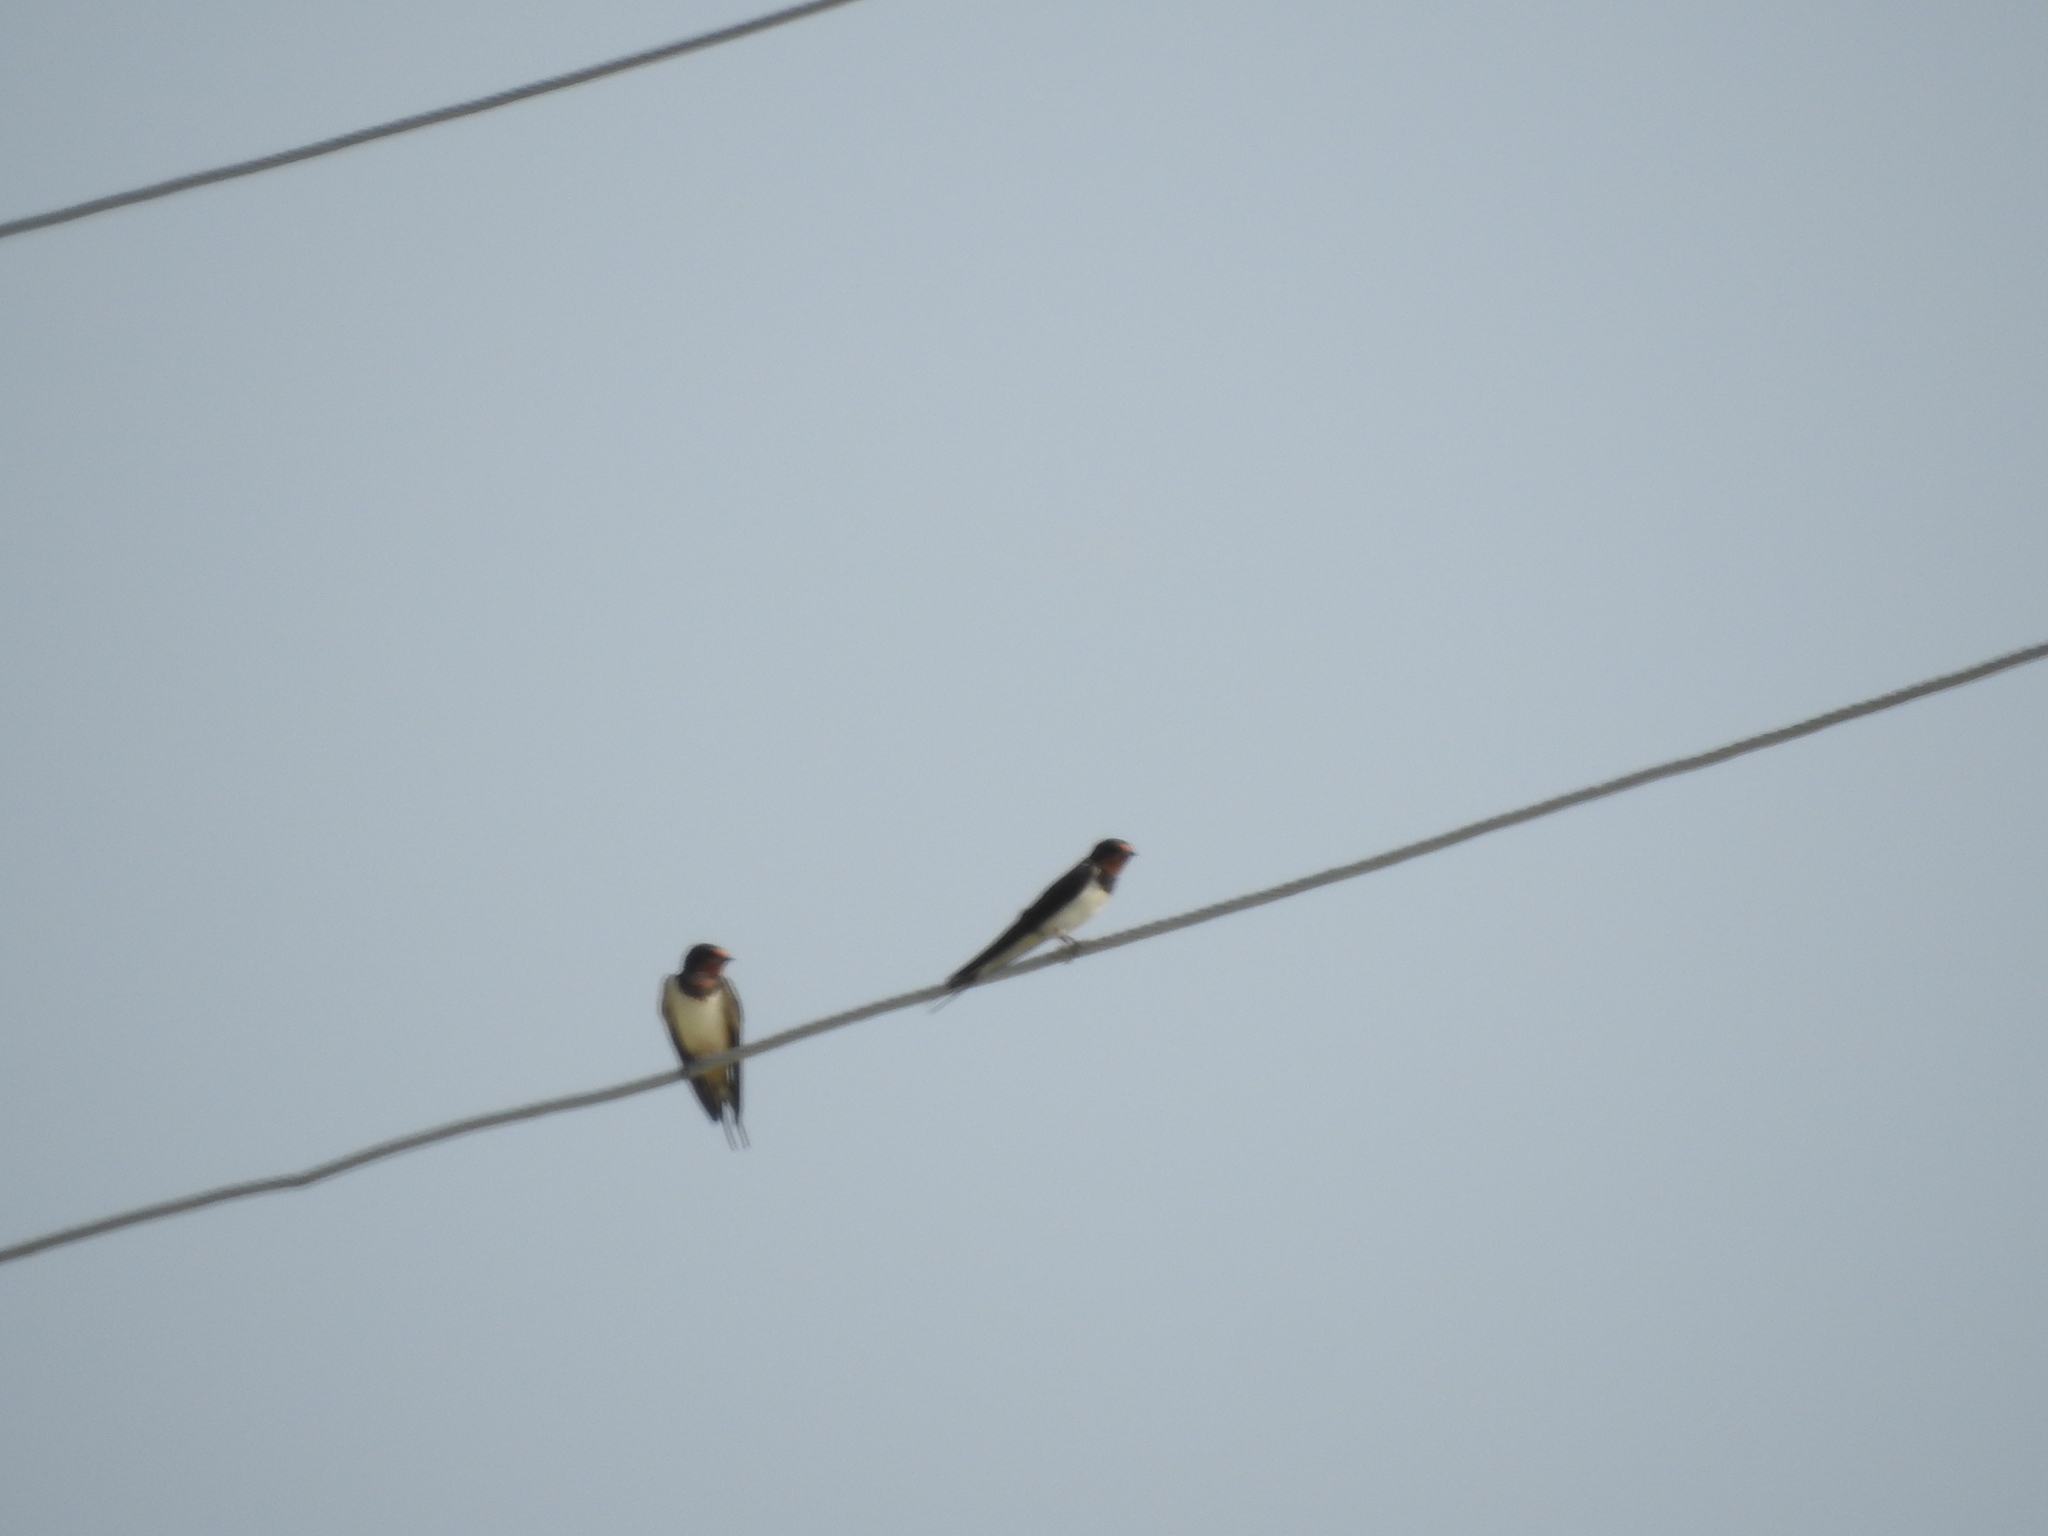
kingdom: Animalia
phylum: Chordata
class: Aves
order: Passeriformes
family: Hirundinidae
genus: Hirundo
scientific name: Hirundo rustica
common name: Barn swallow
